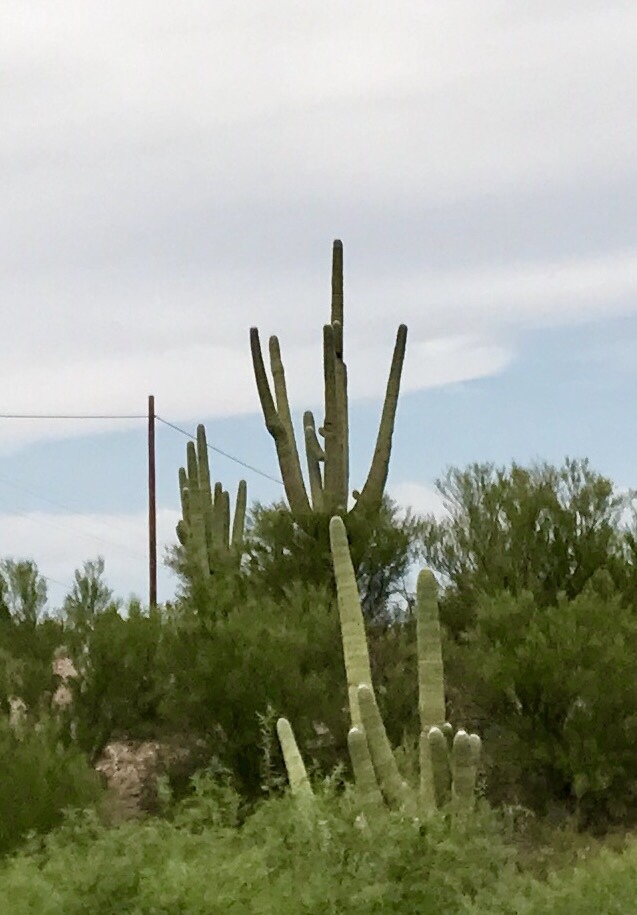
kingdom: Plantae
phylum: Tracheophyta
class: Magnoliopsida
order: Caryophyllales
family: Cactaceae
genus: Carnegiea
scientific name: Carnegiea gigantea
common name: Saguaro
